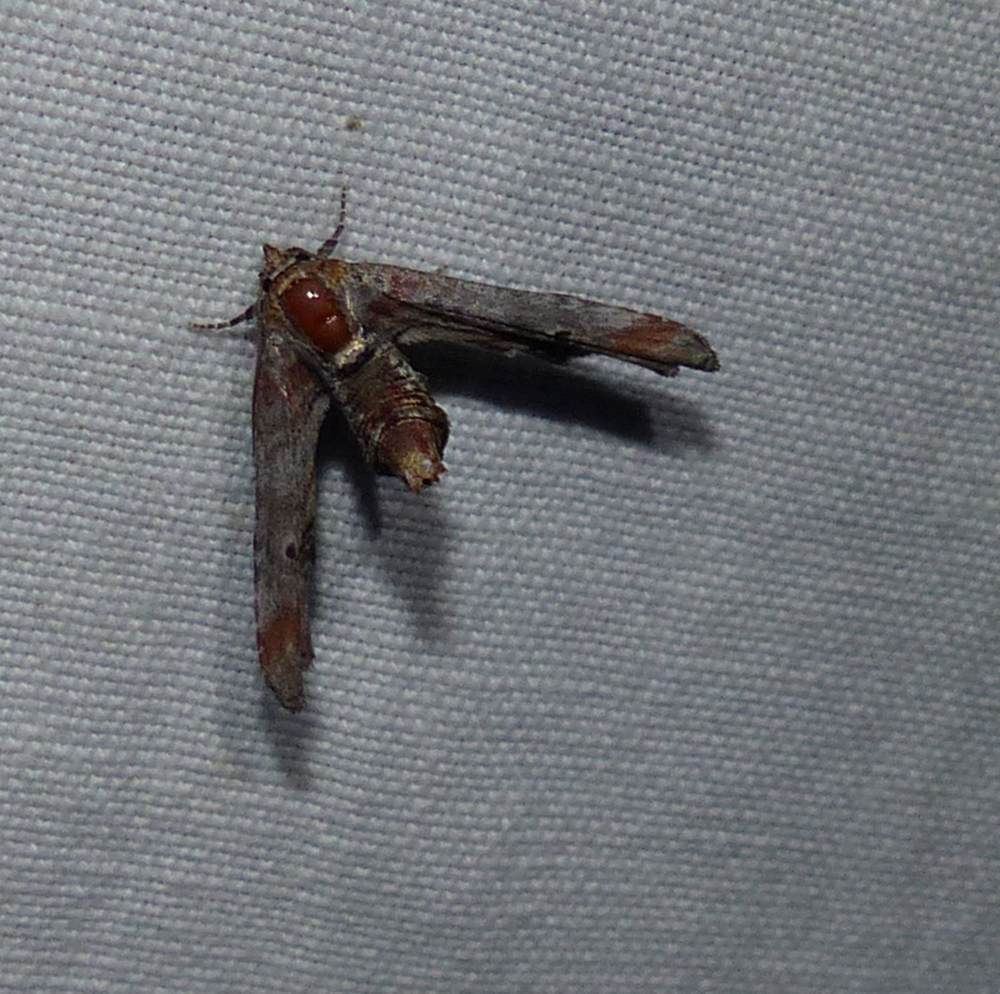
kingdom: Animalia
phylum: Arthropoda
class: Insecta
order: Lepidoptera
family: Euteliidae
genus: Marathyssa
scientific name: Marathyssa inficita
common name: Dark marathyssa moth
